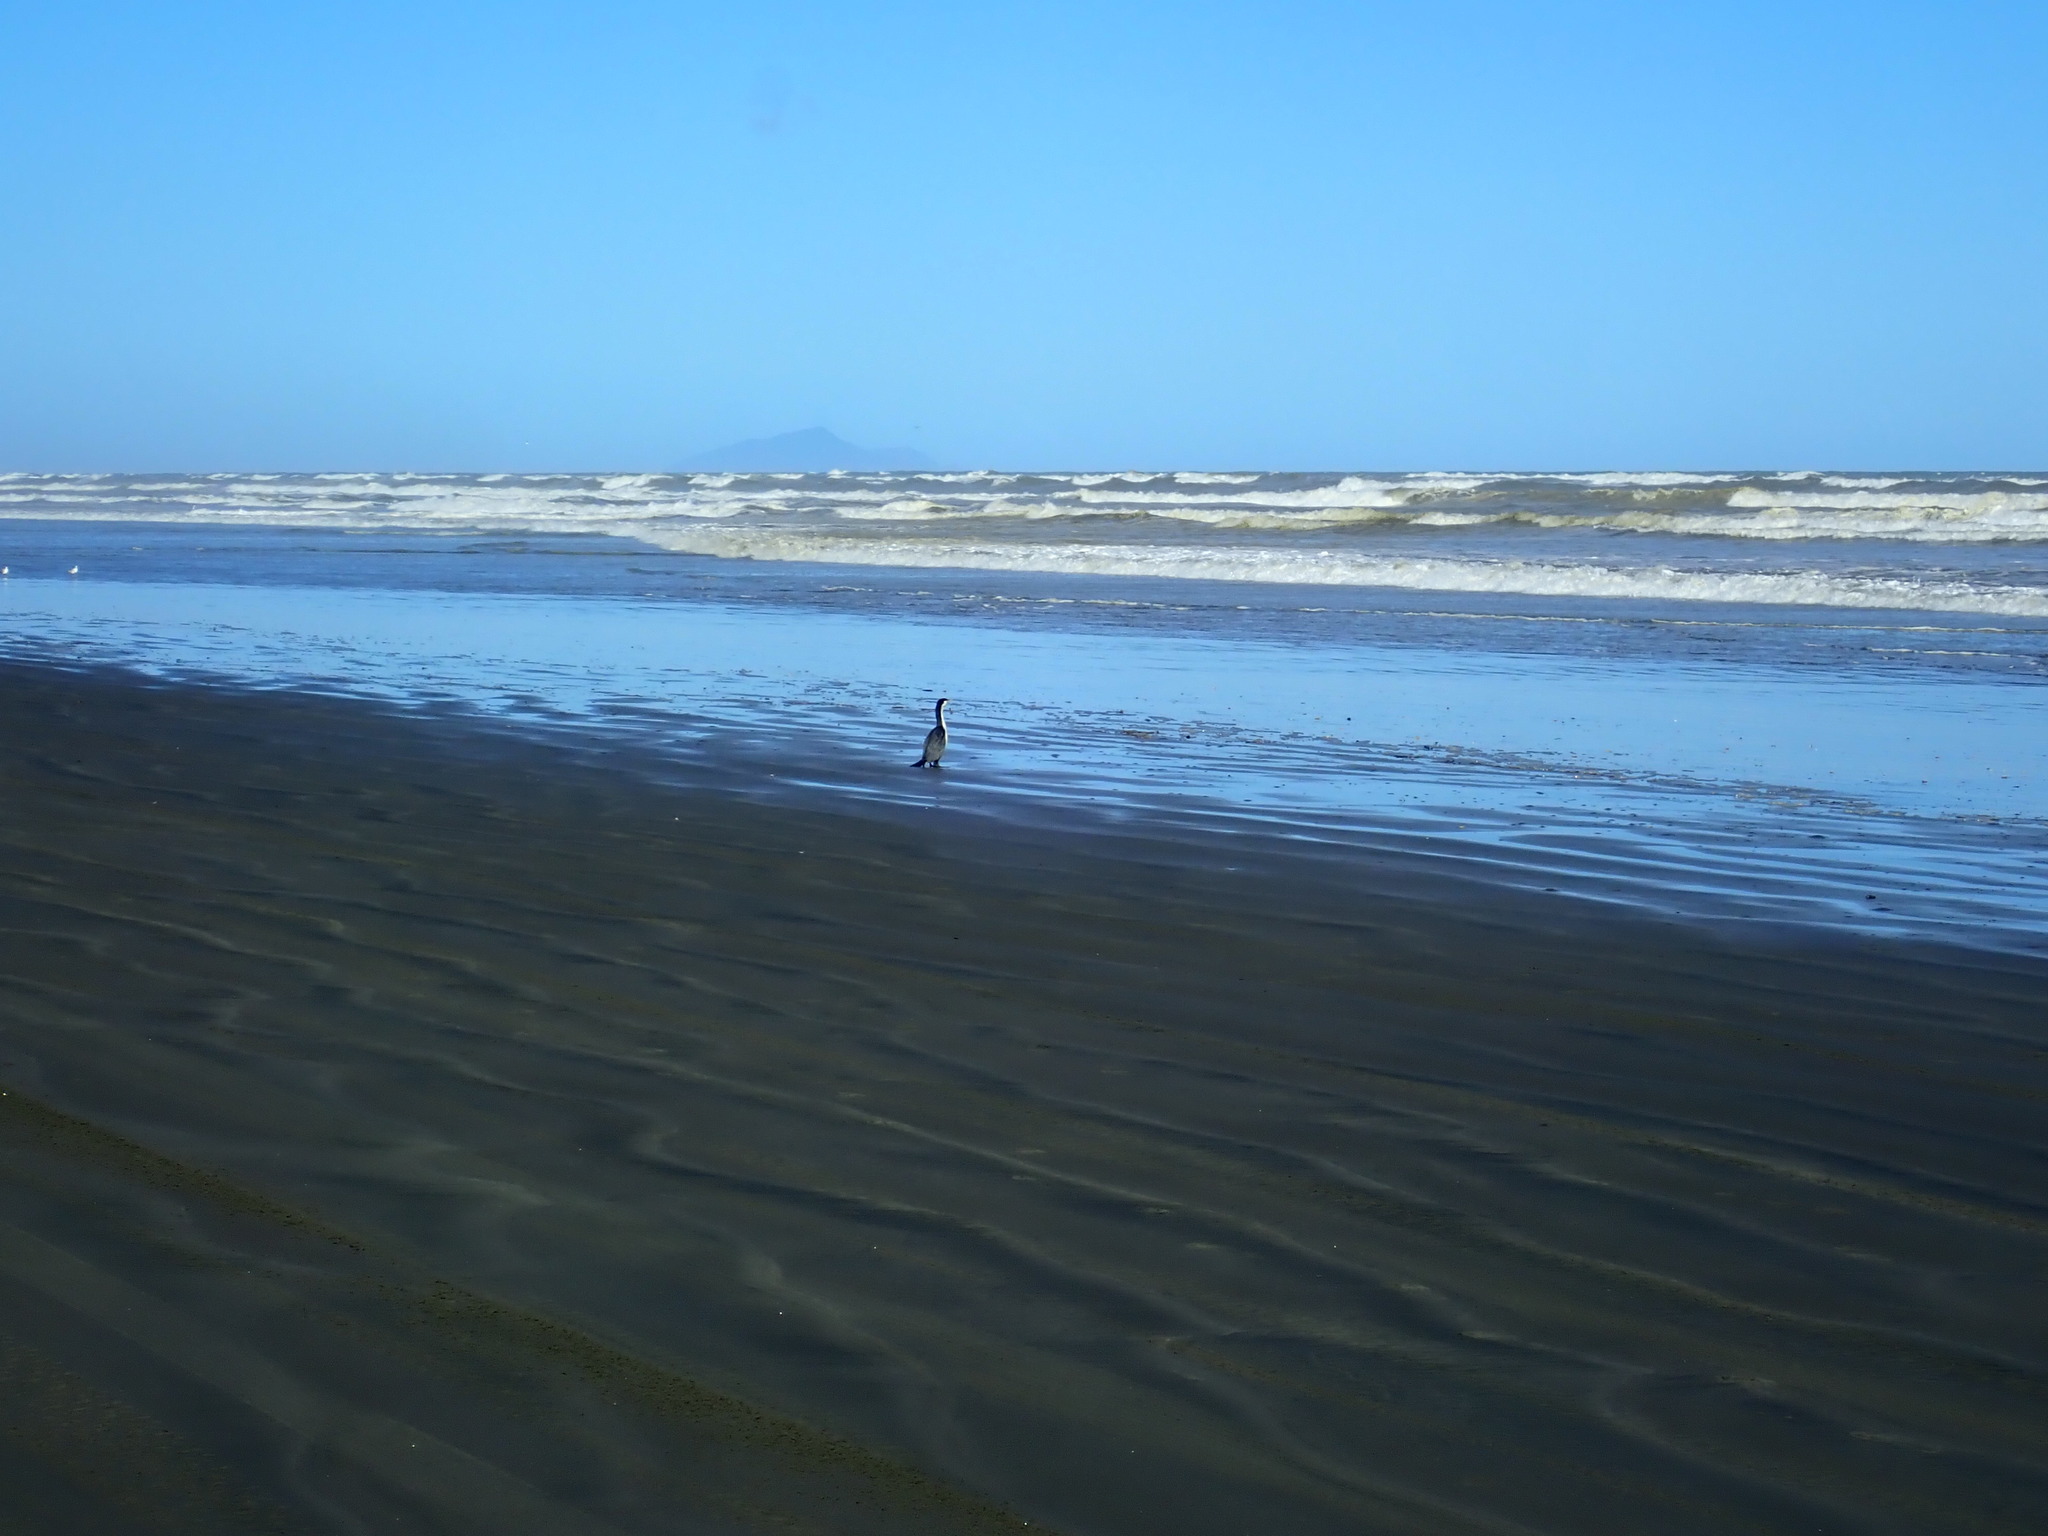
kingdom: Animalia
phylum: Chordata
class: Aves
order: Suliformes
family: Phalacrocoracidae
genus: Phalacrocorax
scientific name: Phalacrocorax varius
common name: Pied cormorant
